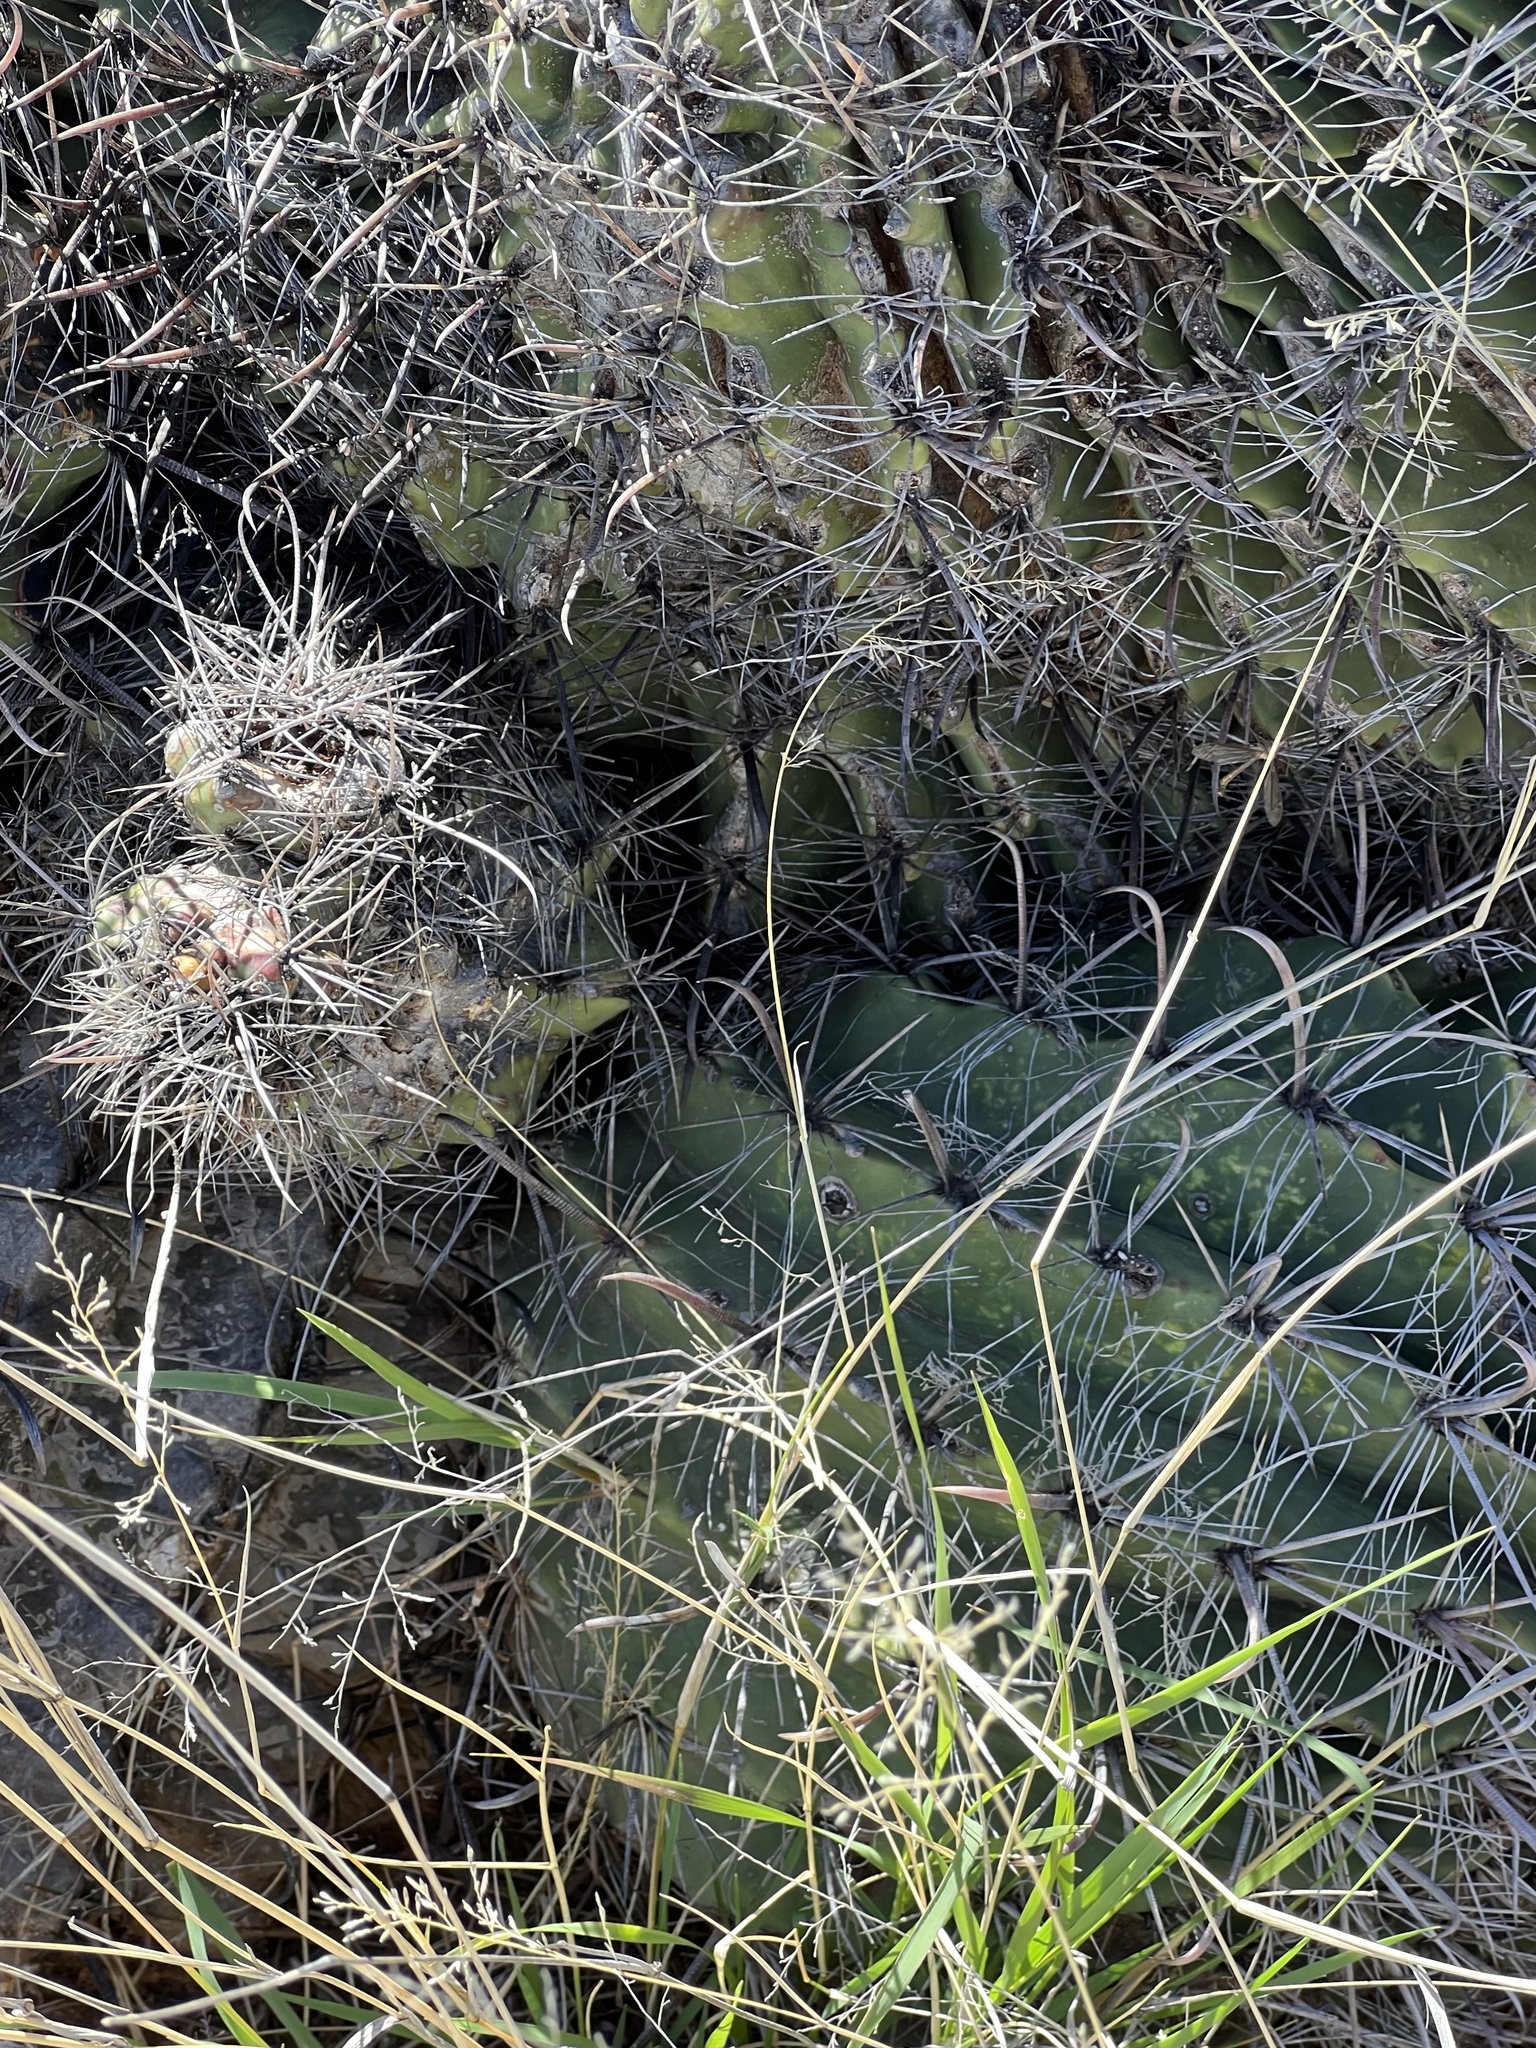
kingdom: Plantae
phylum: Tracheophyta
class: Magnoliopsida
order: Caryophyllales
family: Cactaceae
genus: Ferocactus
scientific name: Ferocactus wislizeni
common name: Candy barrel cactus
